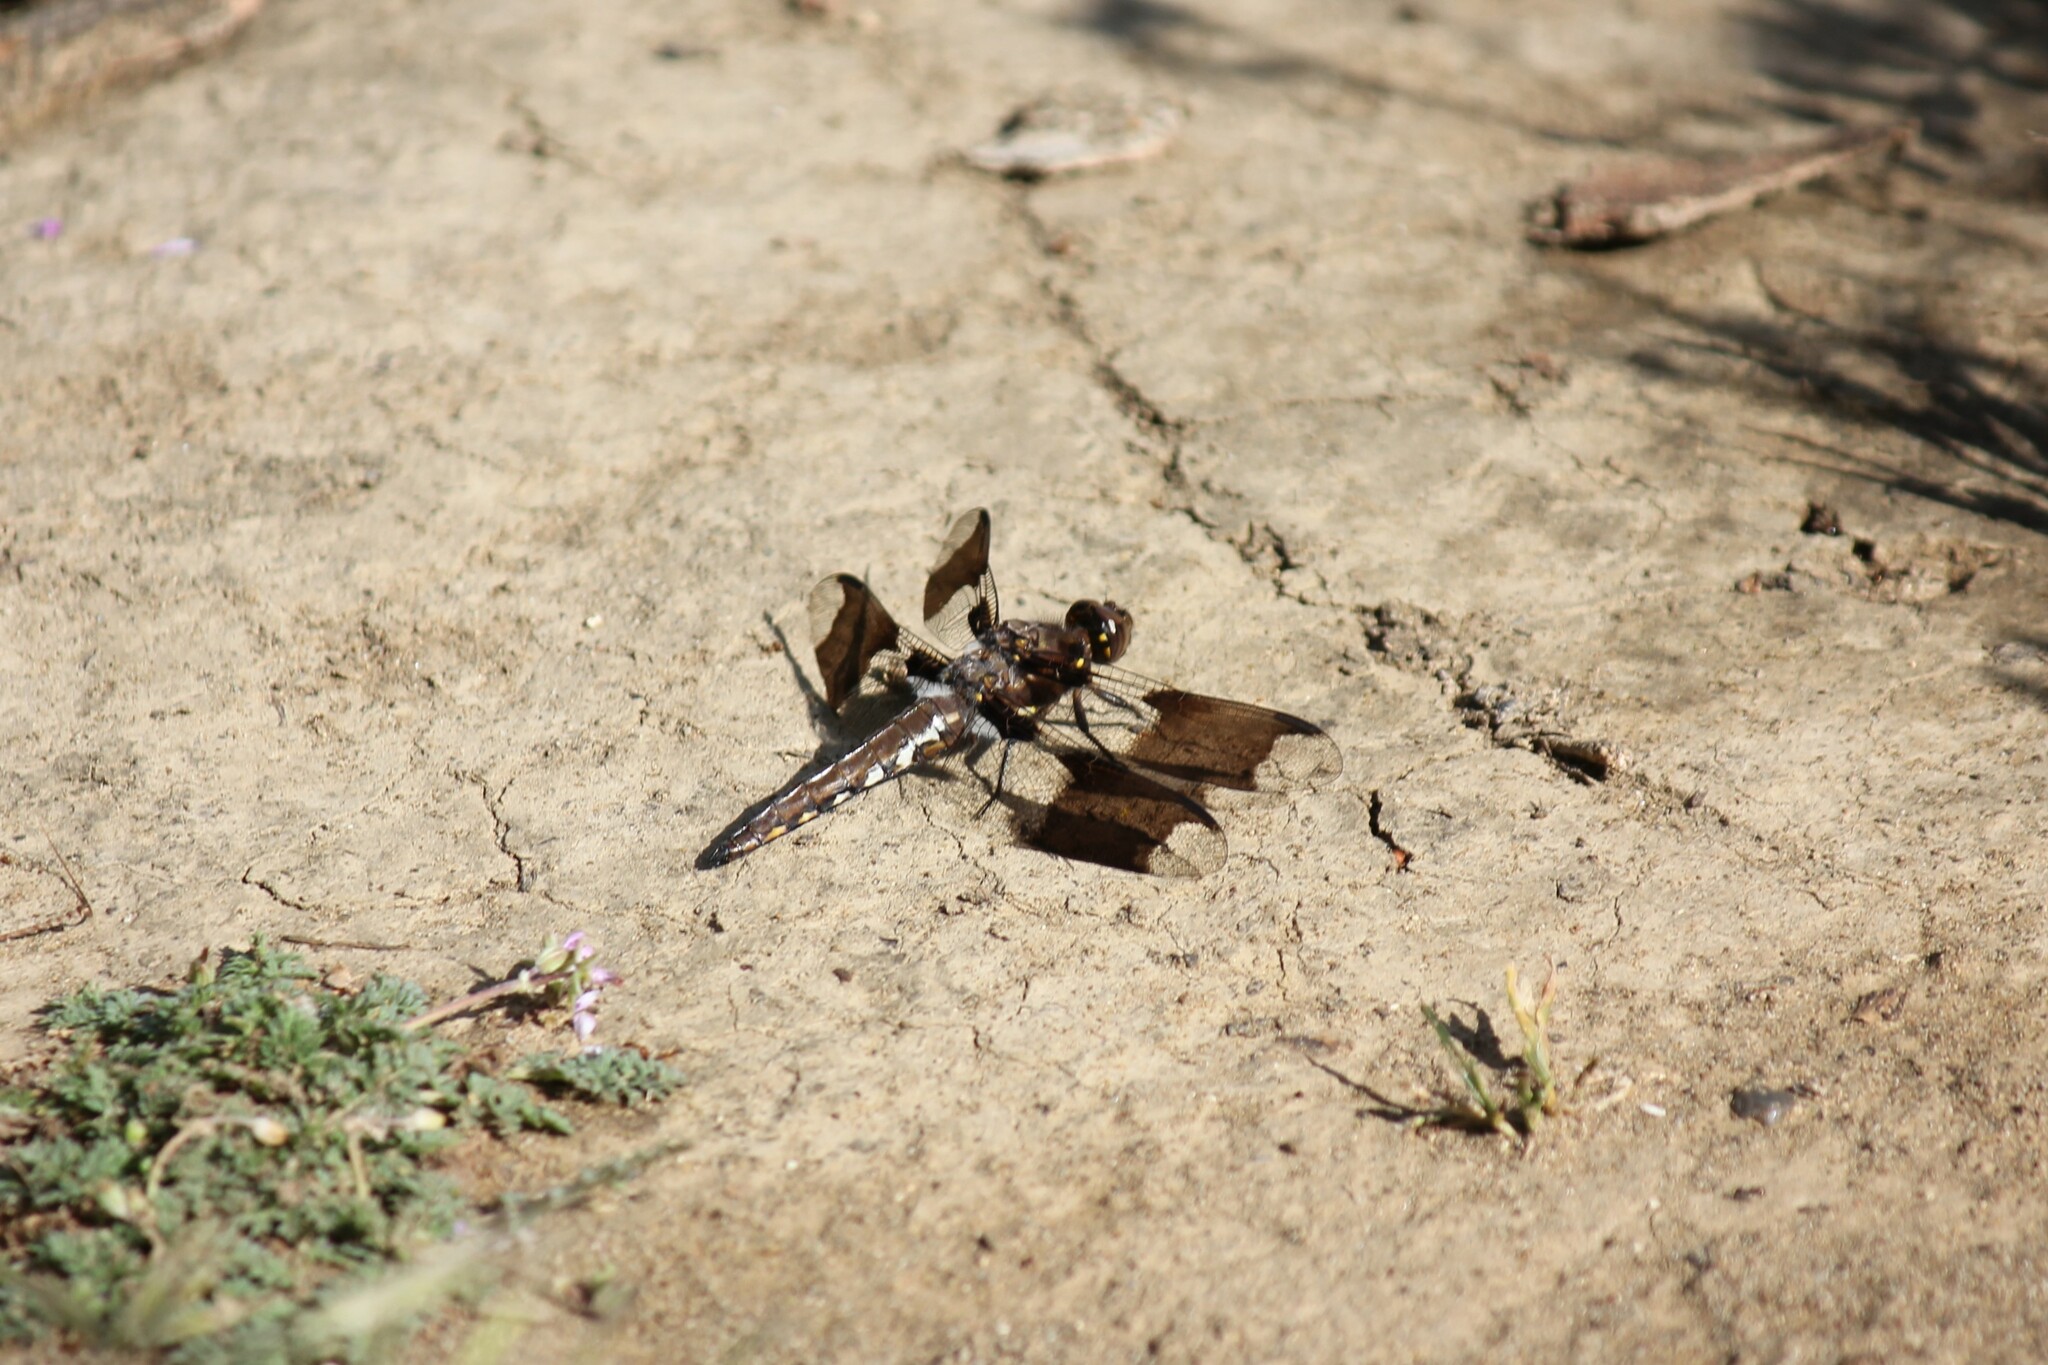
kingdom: Animalia
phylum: Arthropoda
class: Insecta
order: Odonata
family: Libellulidae
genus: Plathemis
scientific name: Plathemis lydia
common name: Common whitetail
